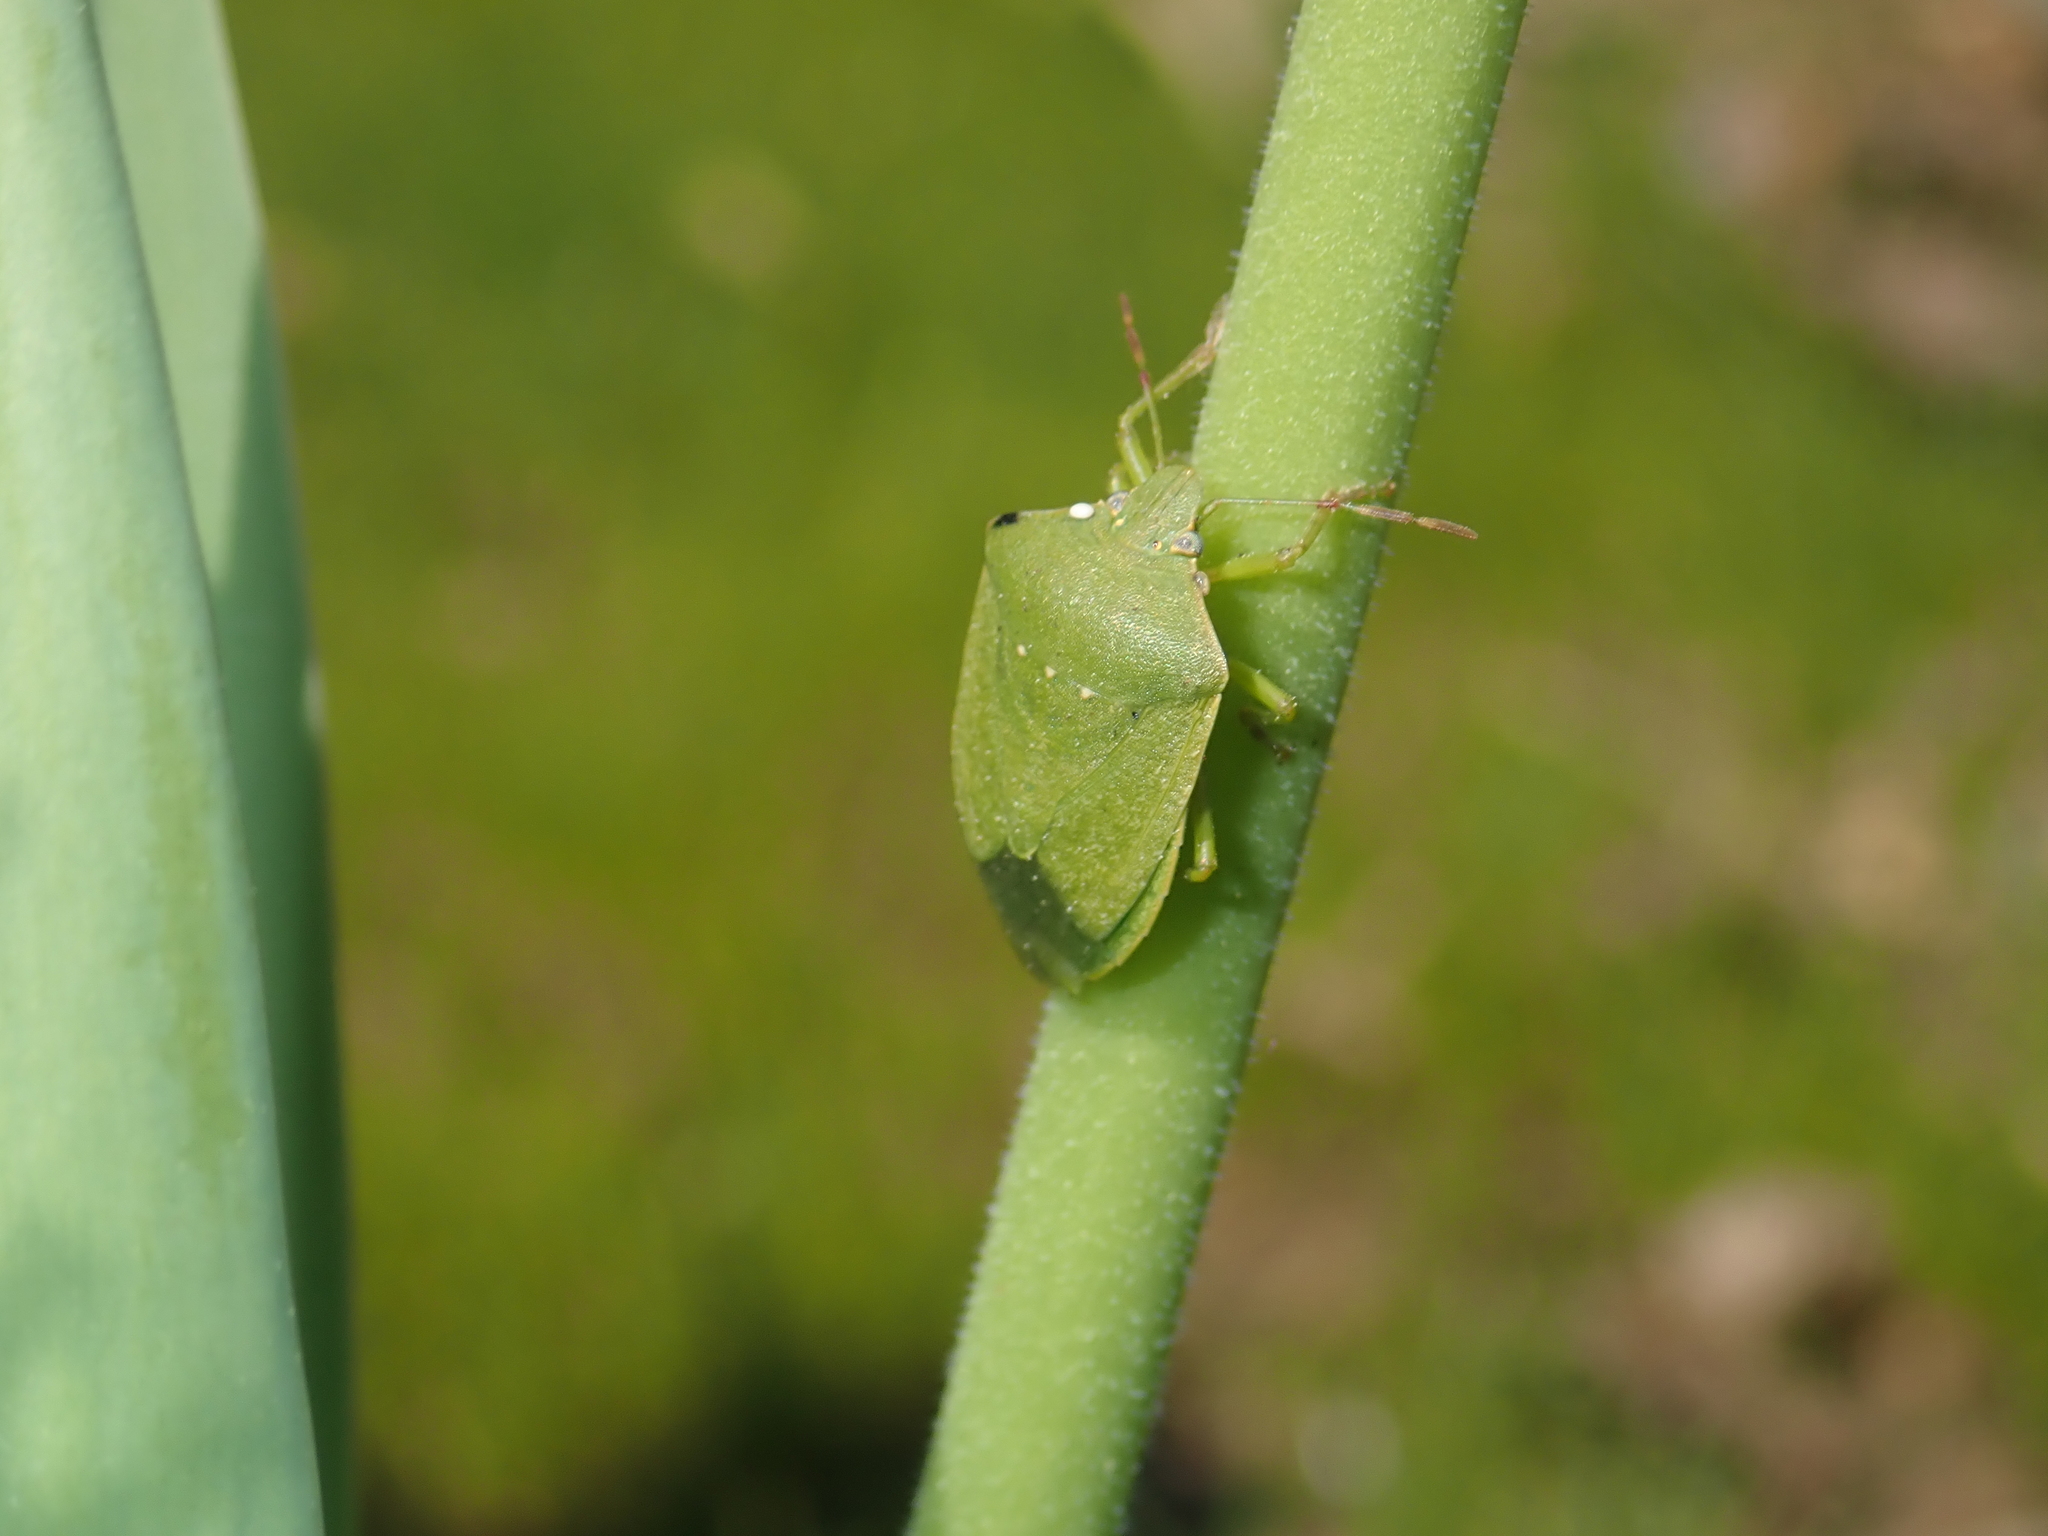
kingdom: Animalia
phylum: Arthropoda
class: Insecta
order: Hemiptera
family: Pentatomidae
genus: Nezara
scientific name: Nezara viridula
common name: Southern green stink bug
